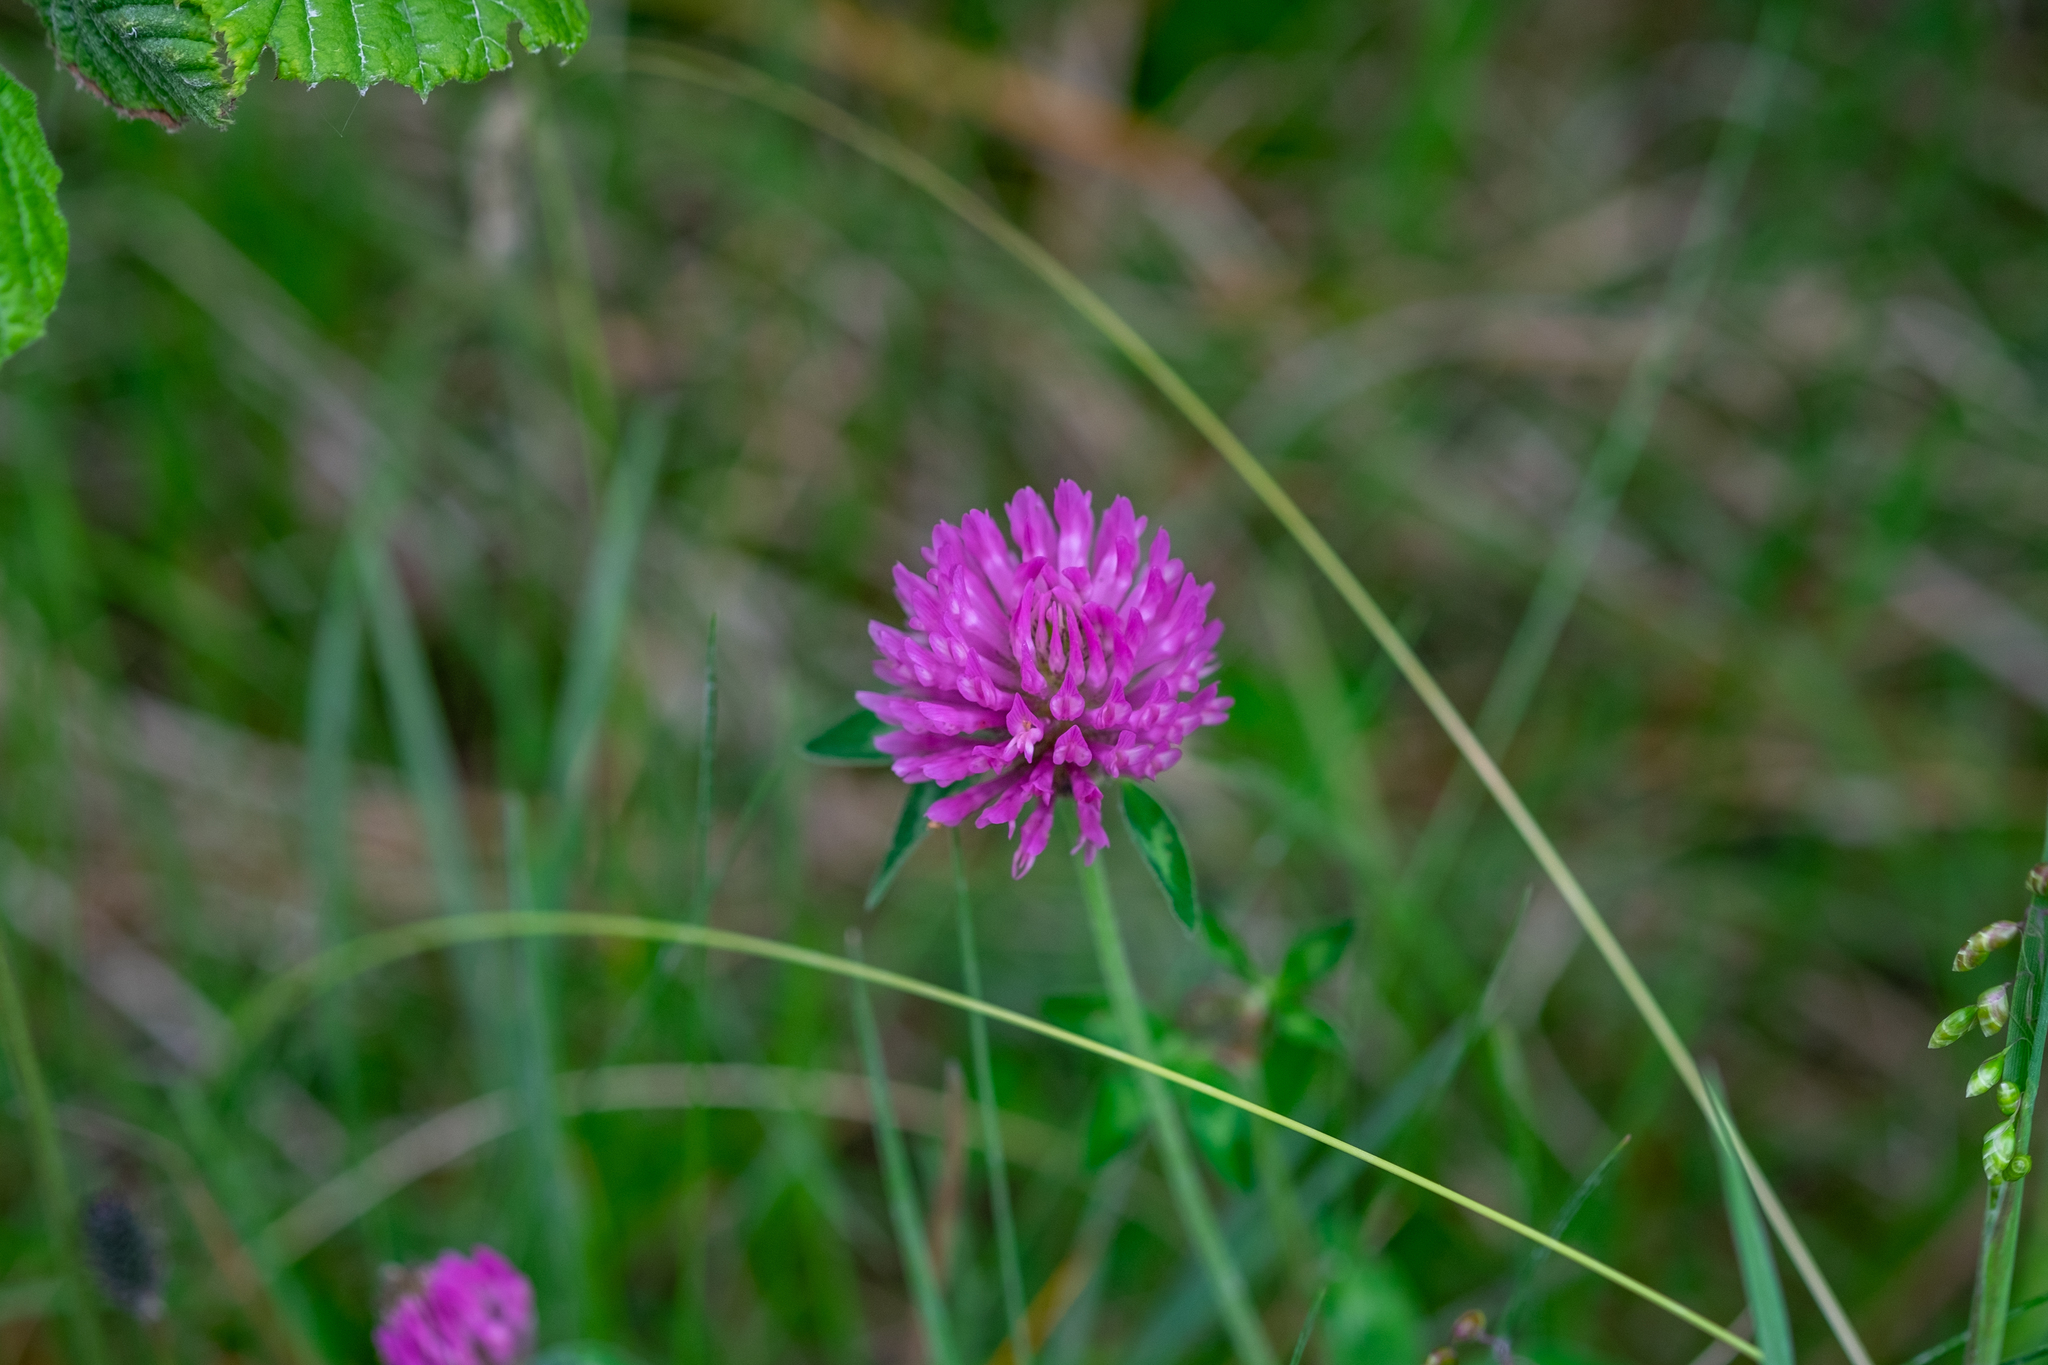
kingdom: Plantae
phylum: Tracheophyta
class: Magnoliopsida
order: Fabales
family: Fabaceae
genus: Trifolium
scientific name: Trifolium pratense
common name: Red clover
